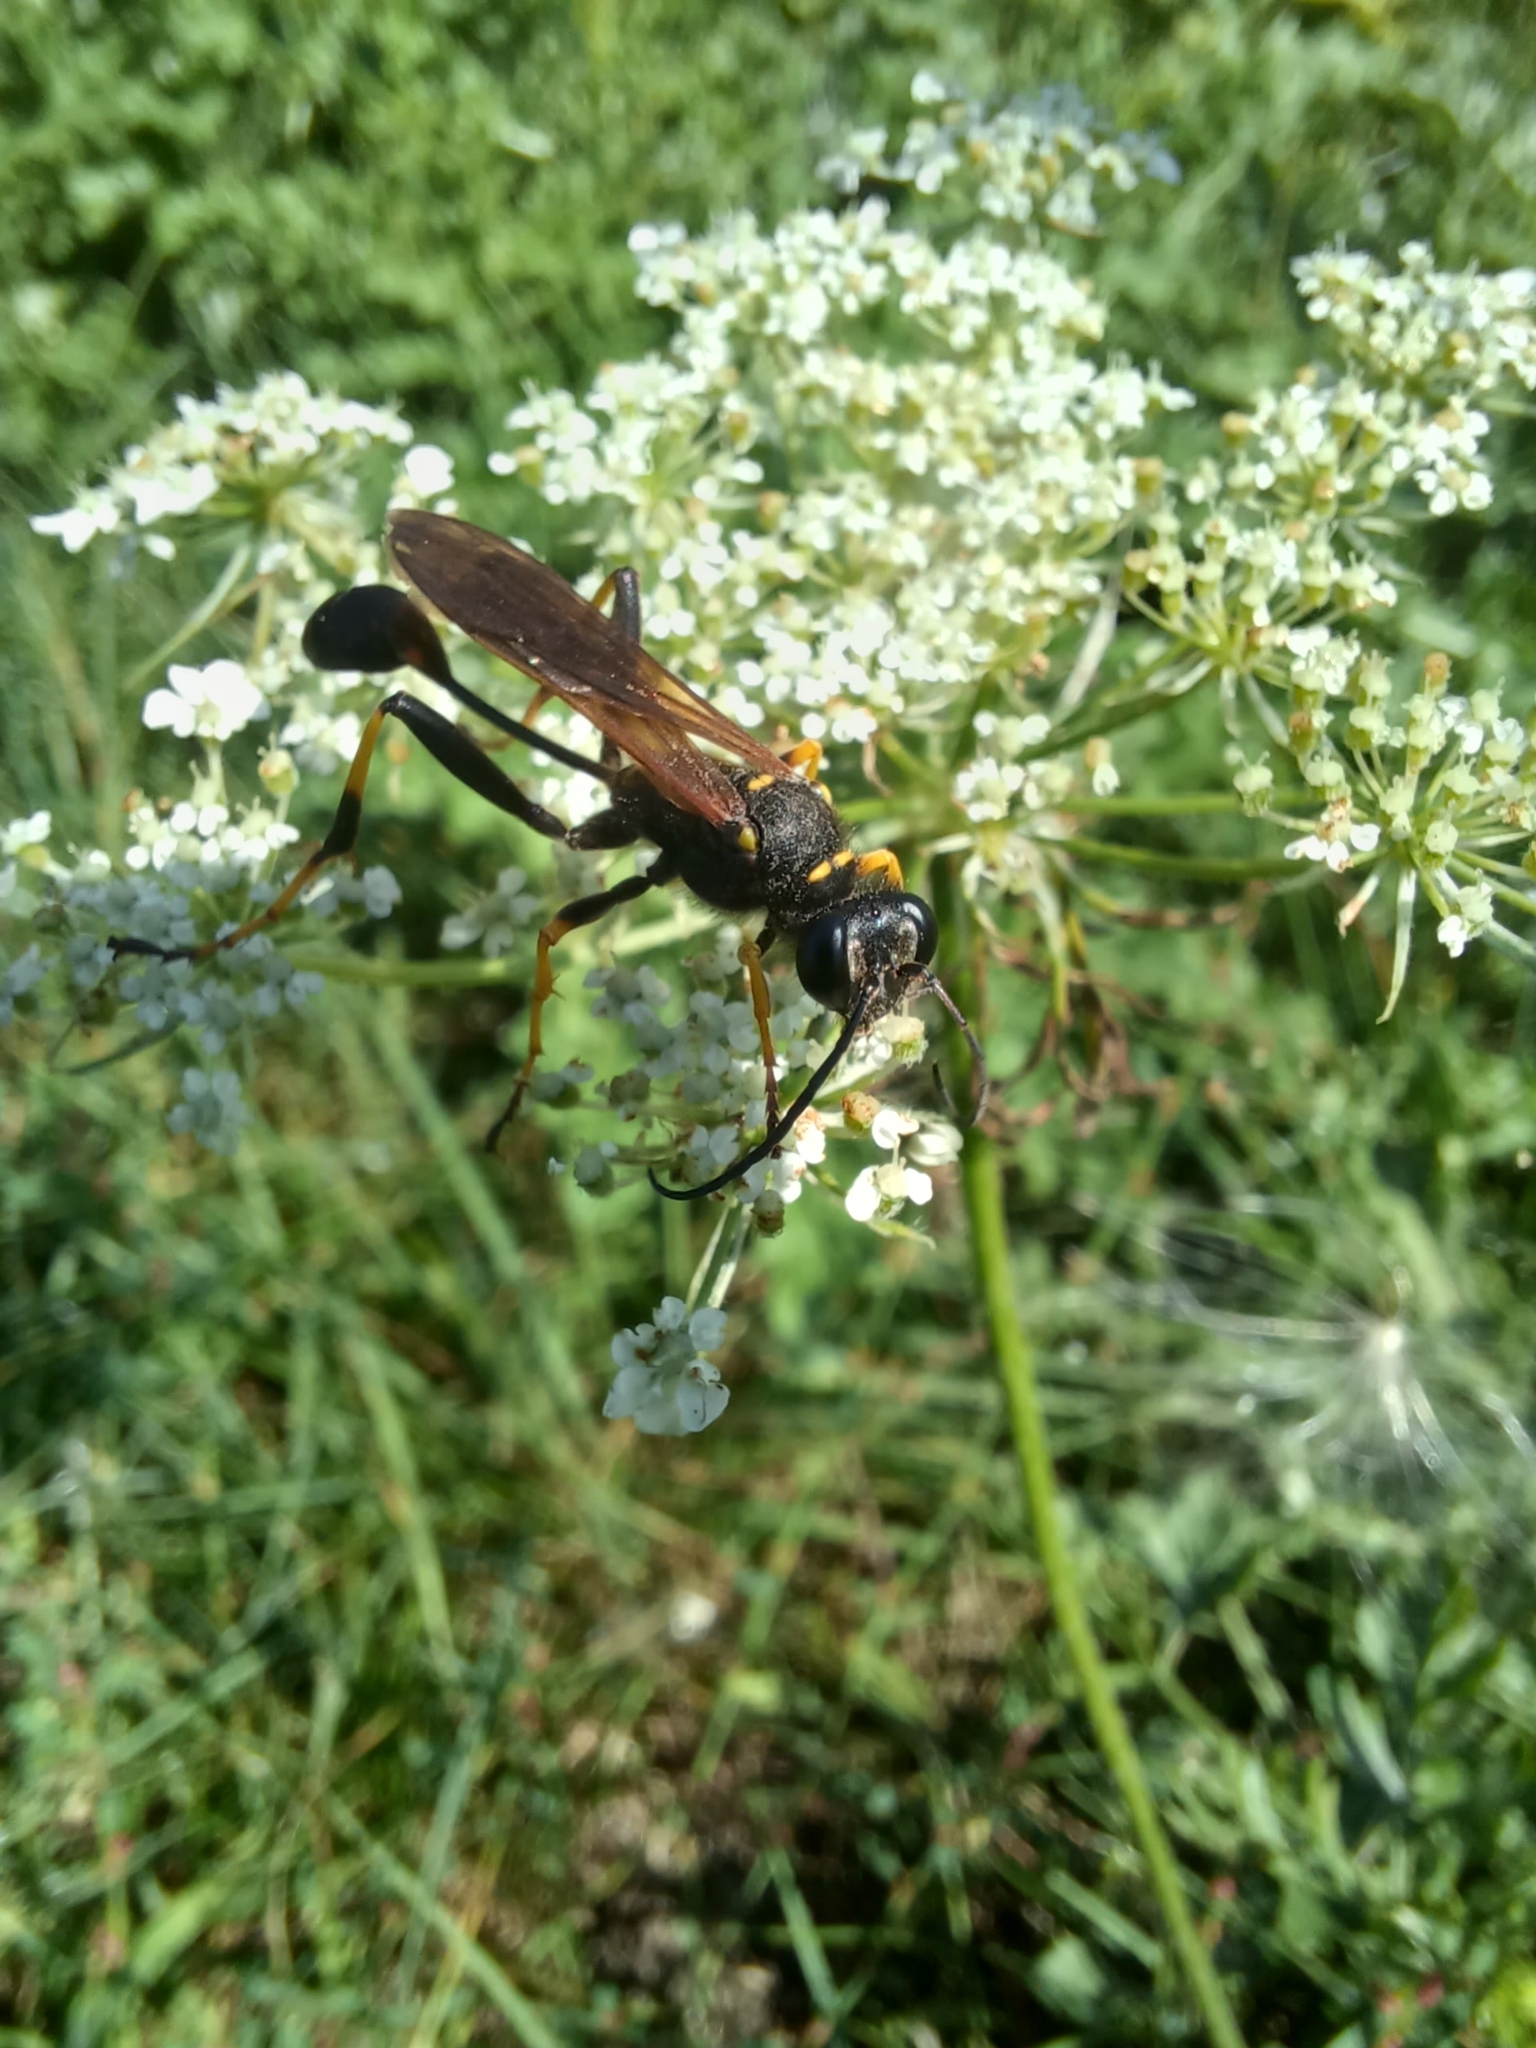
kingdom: Animalia
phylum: Arthropoda
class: Insecta
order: Hymenoptera
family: Sphecidae
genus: Sceliphron
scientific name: Sceliphron caementarium
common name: Mud dauber
